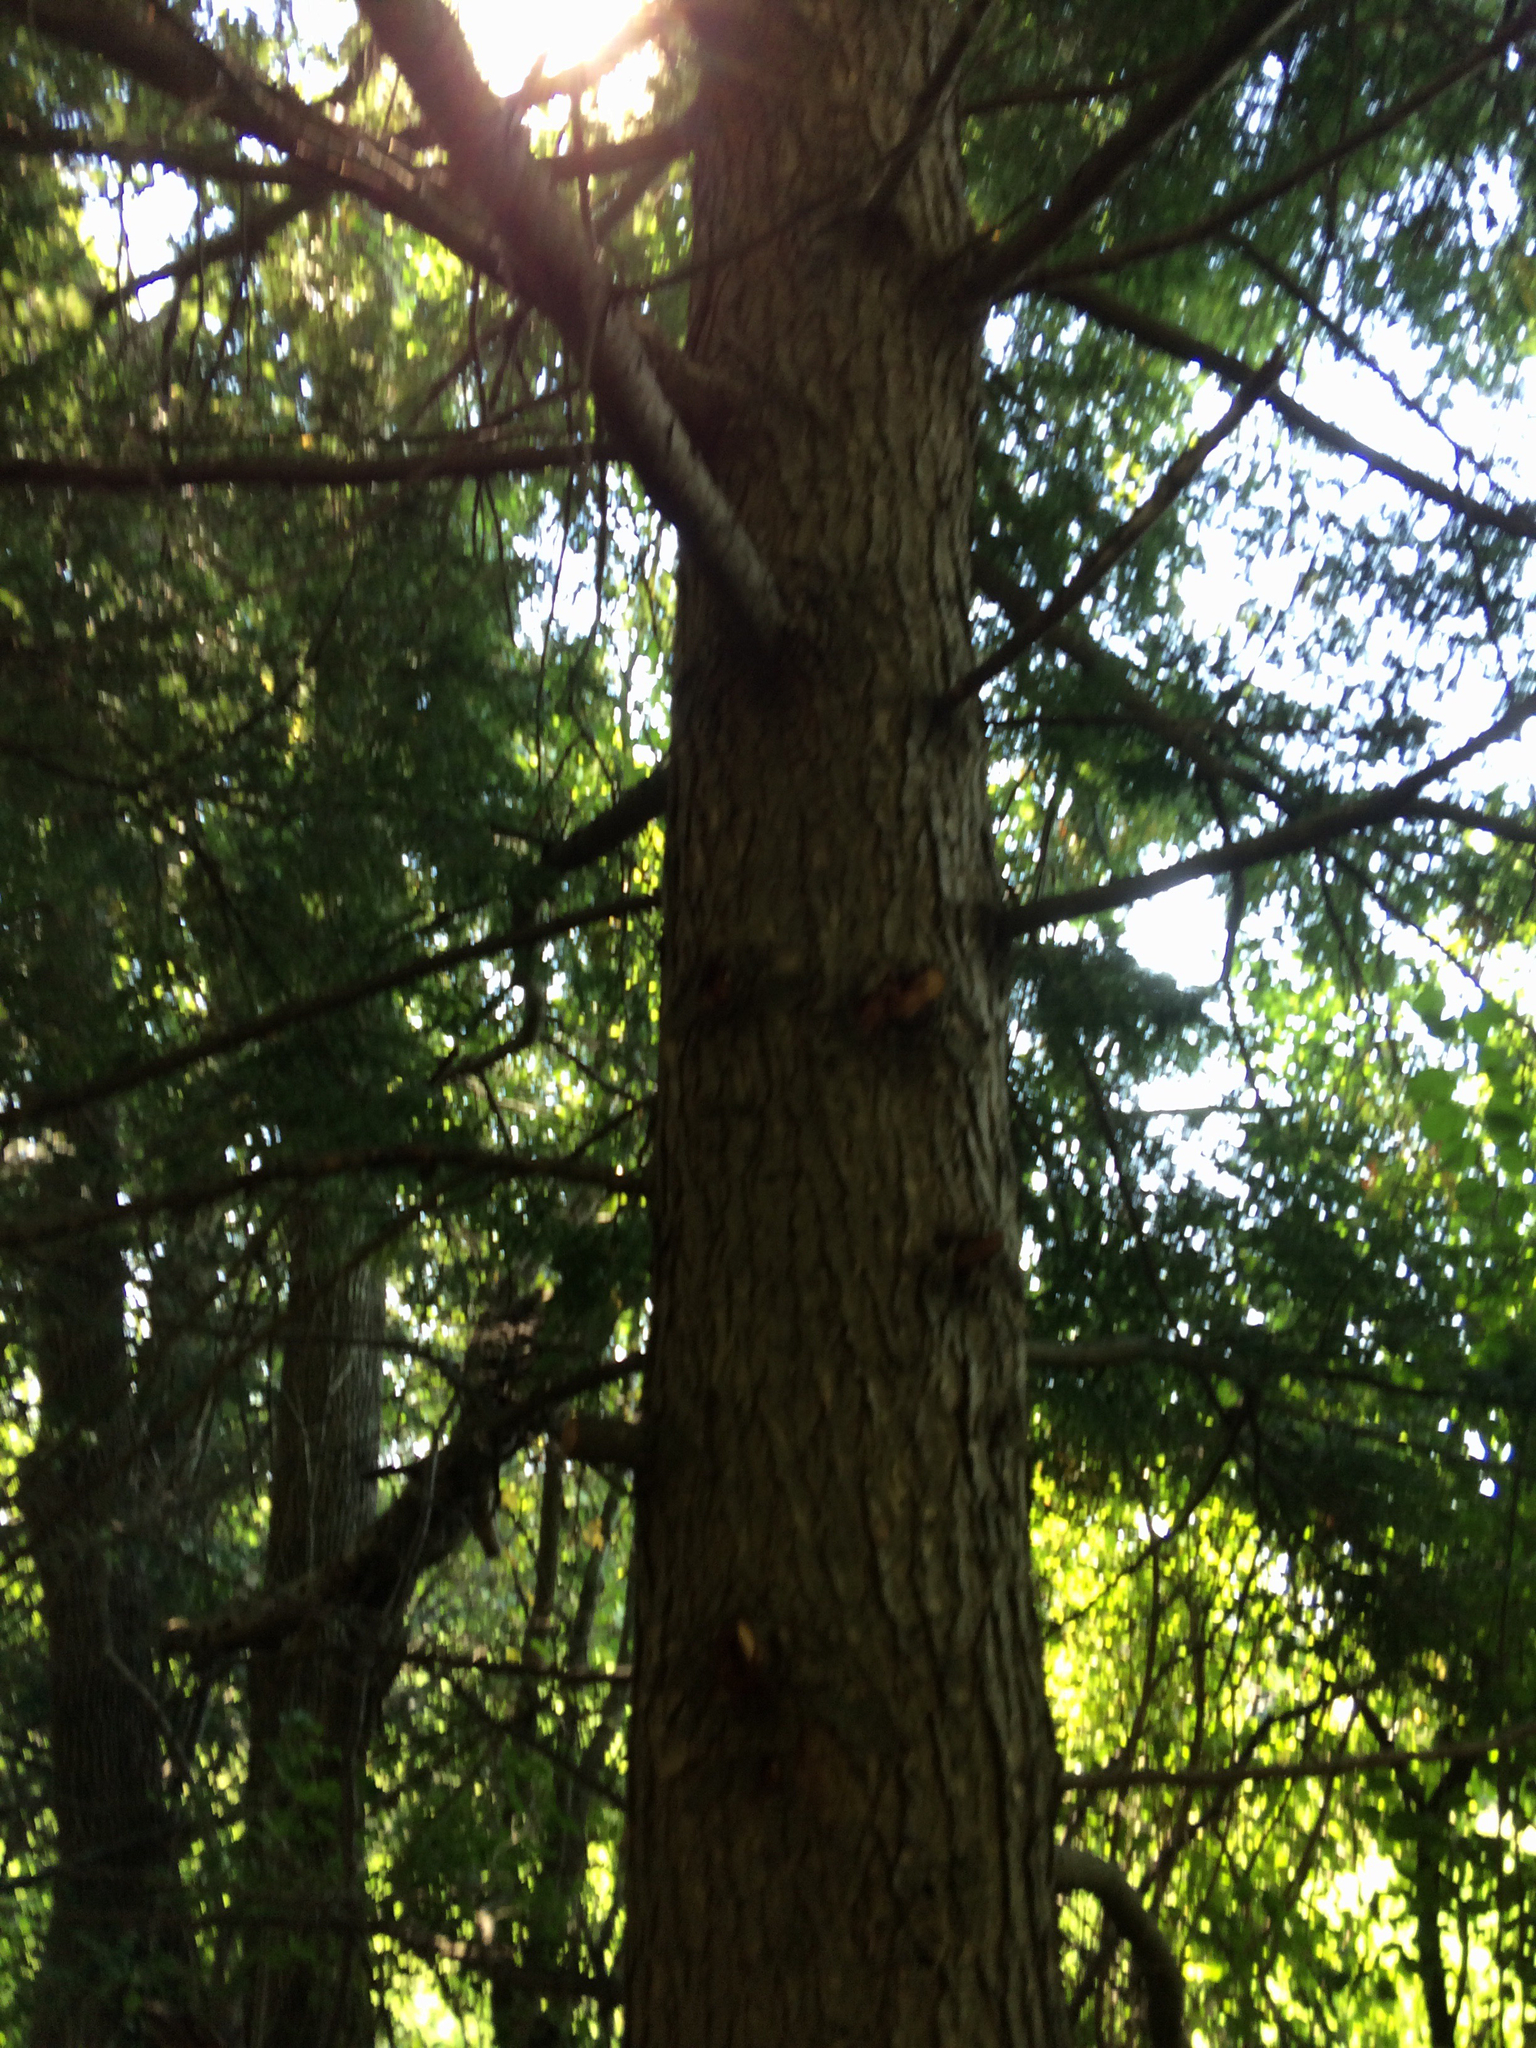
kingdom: Plantae
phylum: Tracheophyta
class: Pinopsida
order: Pinales
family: Pinaceae
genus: Tsuga
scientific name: Tsuga canadensis
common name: Eastern hemlock
